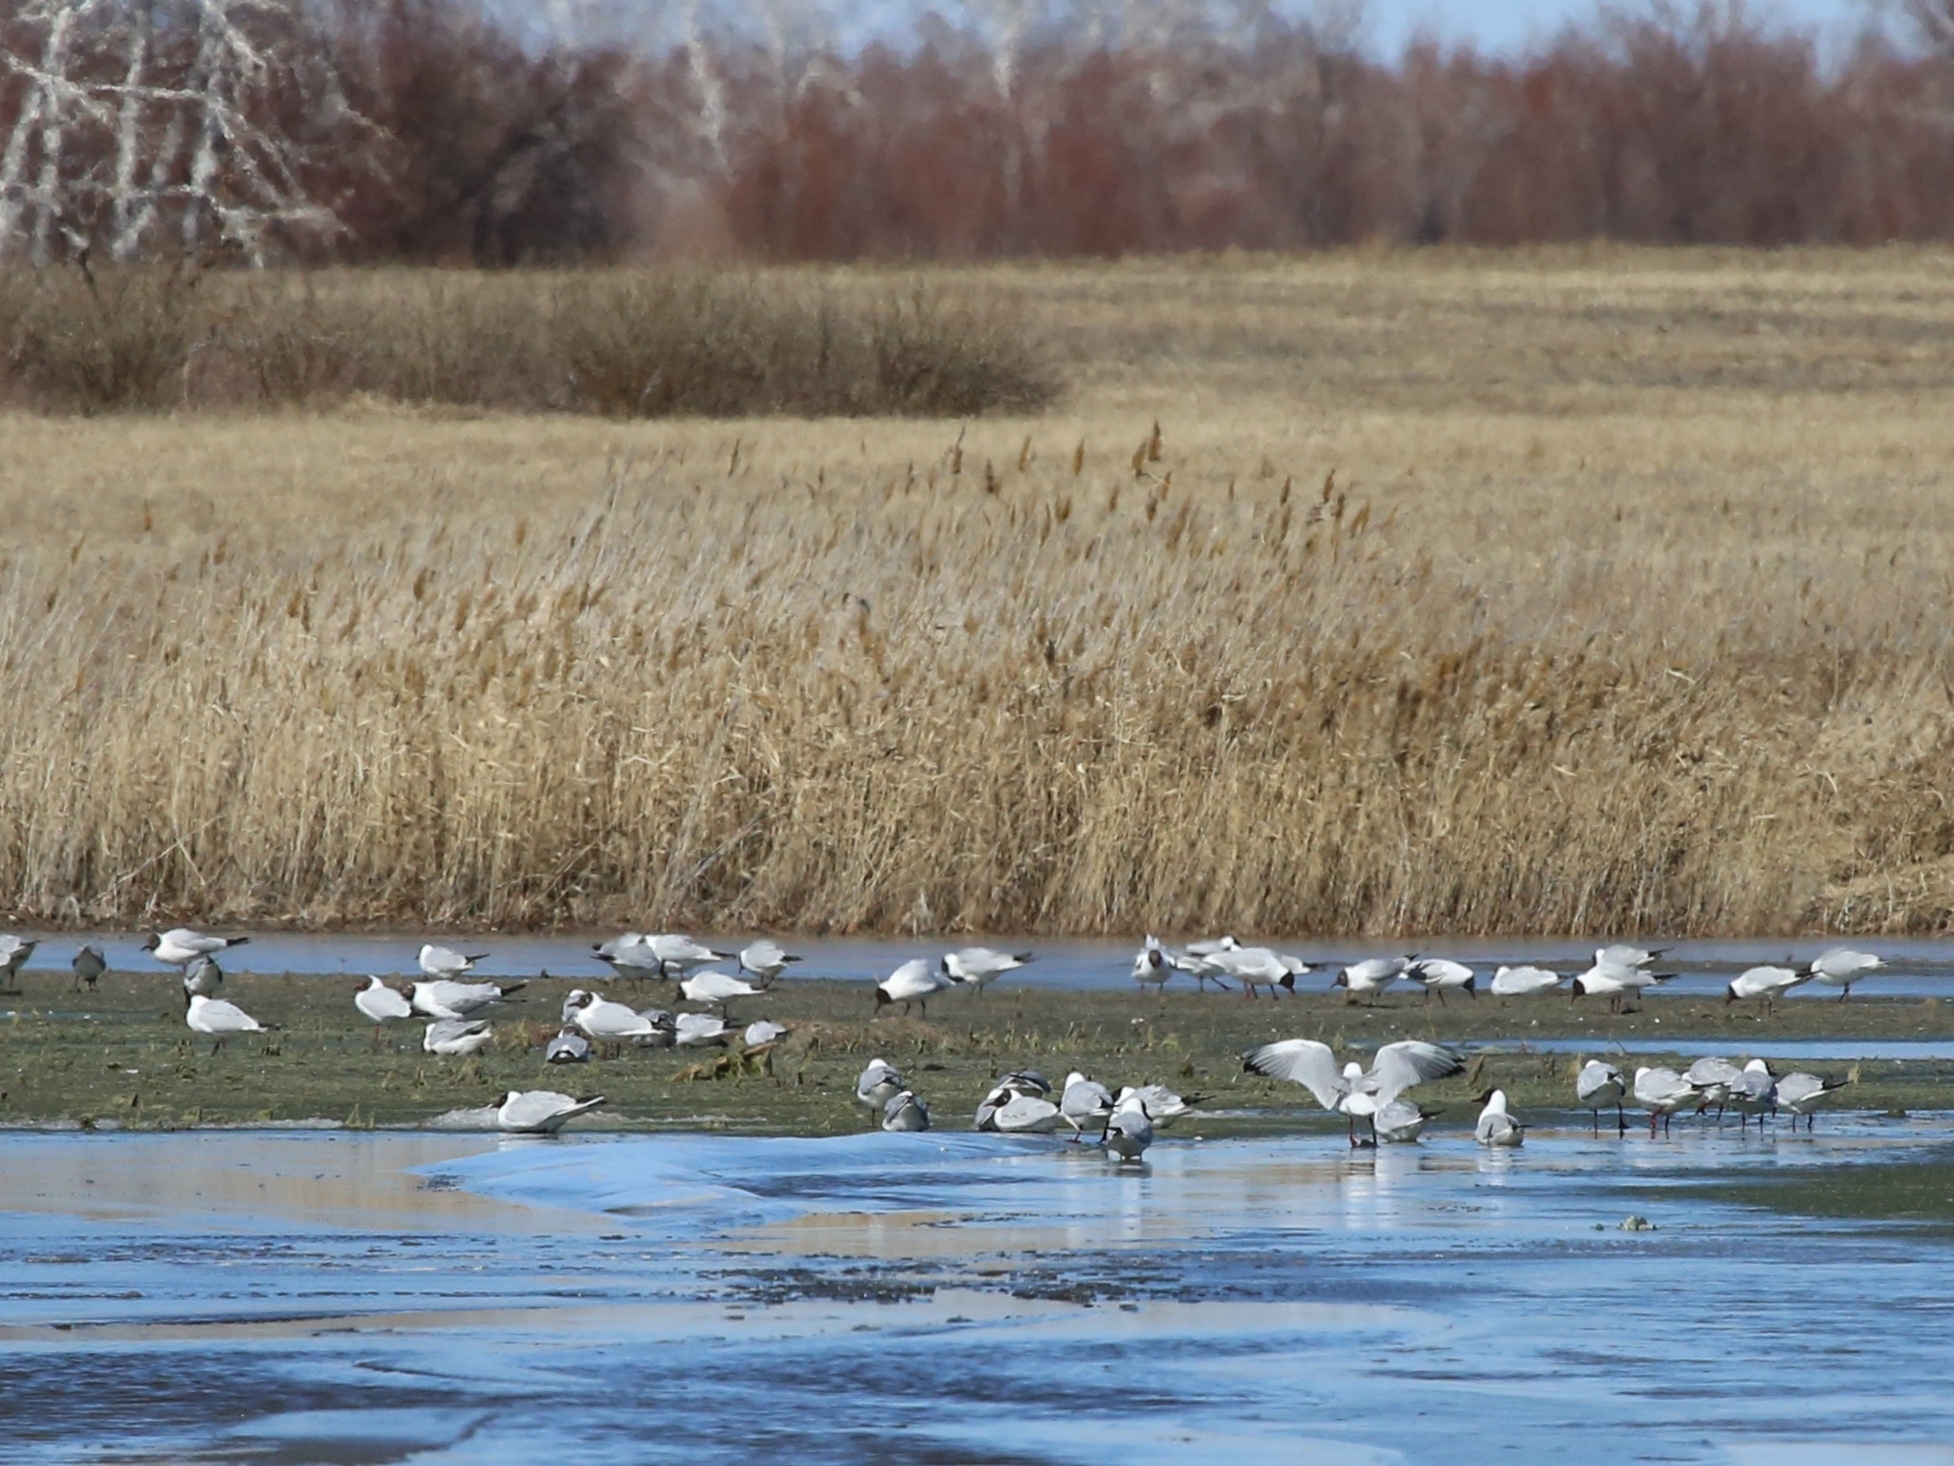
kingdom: Animalia
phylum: Chordata
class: Aves
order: Charadriiformes
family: Laridae
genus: Chroicocephalus
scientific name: Chroicocephalus ridibundus
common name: Black-headed gull
